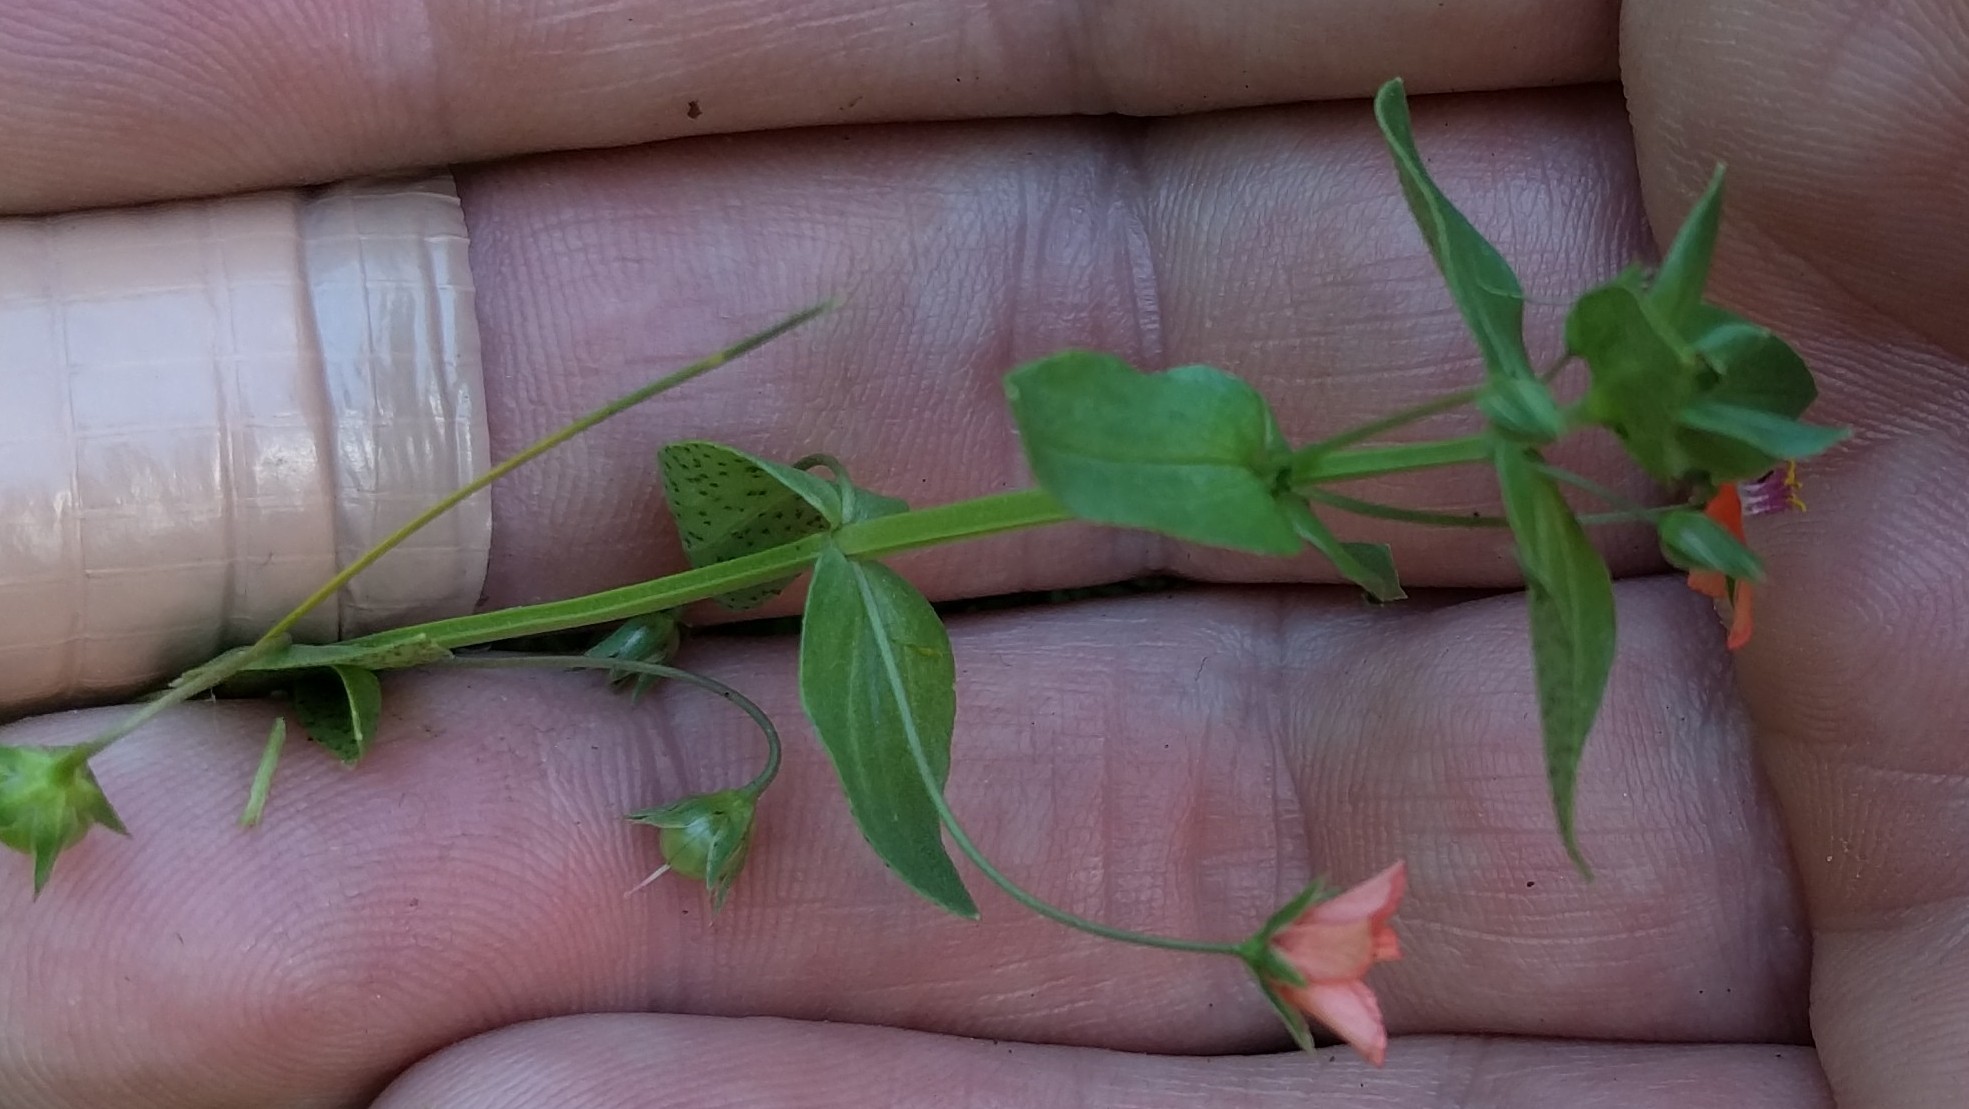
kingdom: Plantae
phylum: Tracheophyta
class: Magnoliopsida
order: Ericales
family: Primulaceae
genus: Lysimachia
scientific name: Lysimachia arvensis
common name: Scarlet pimpernel
